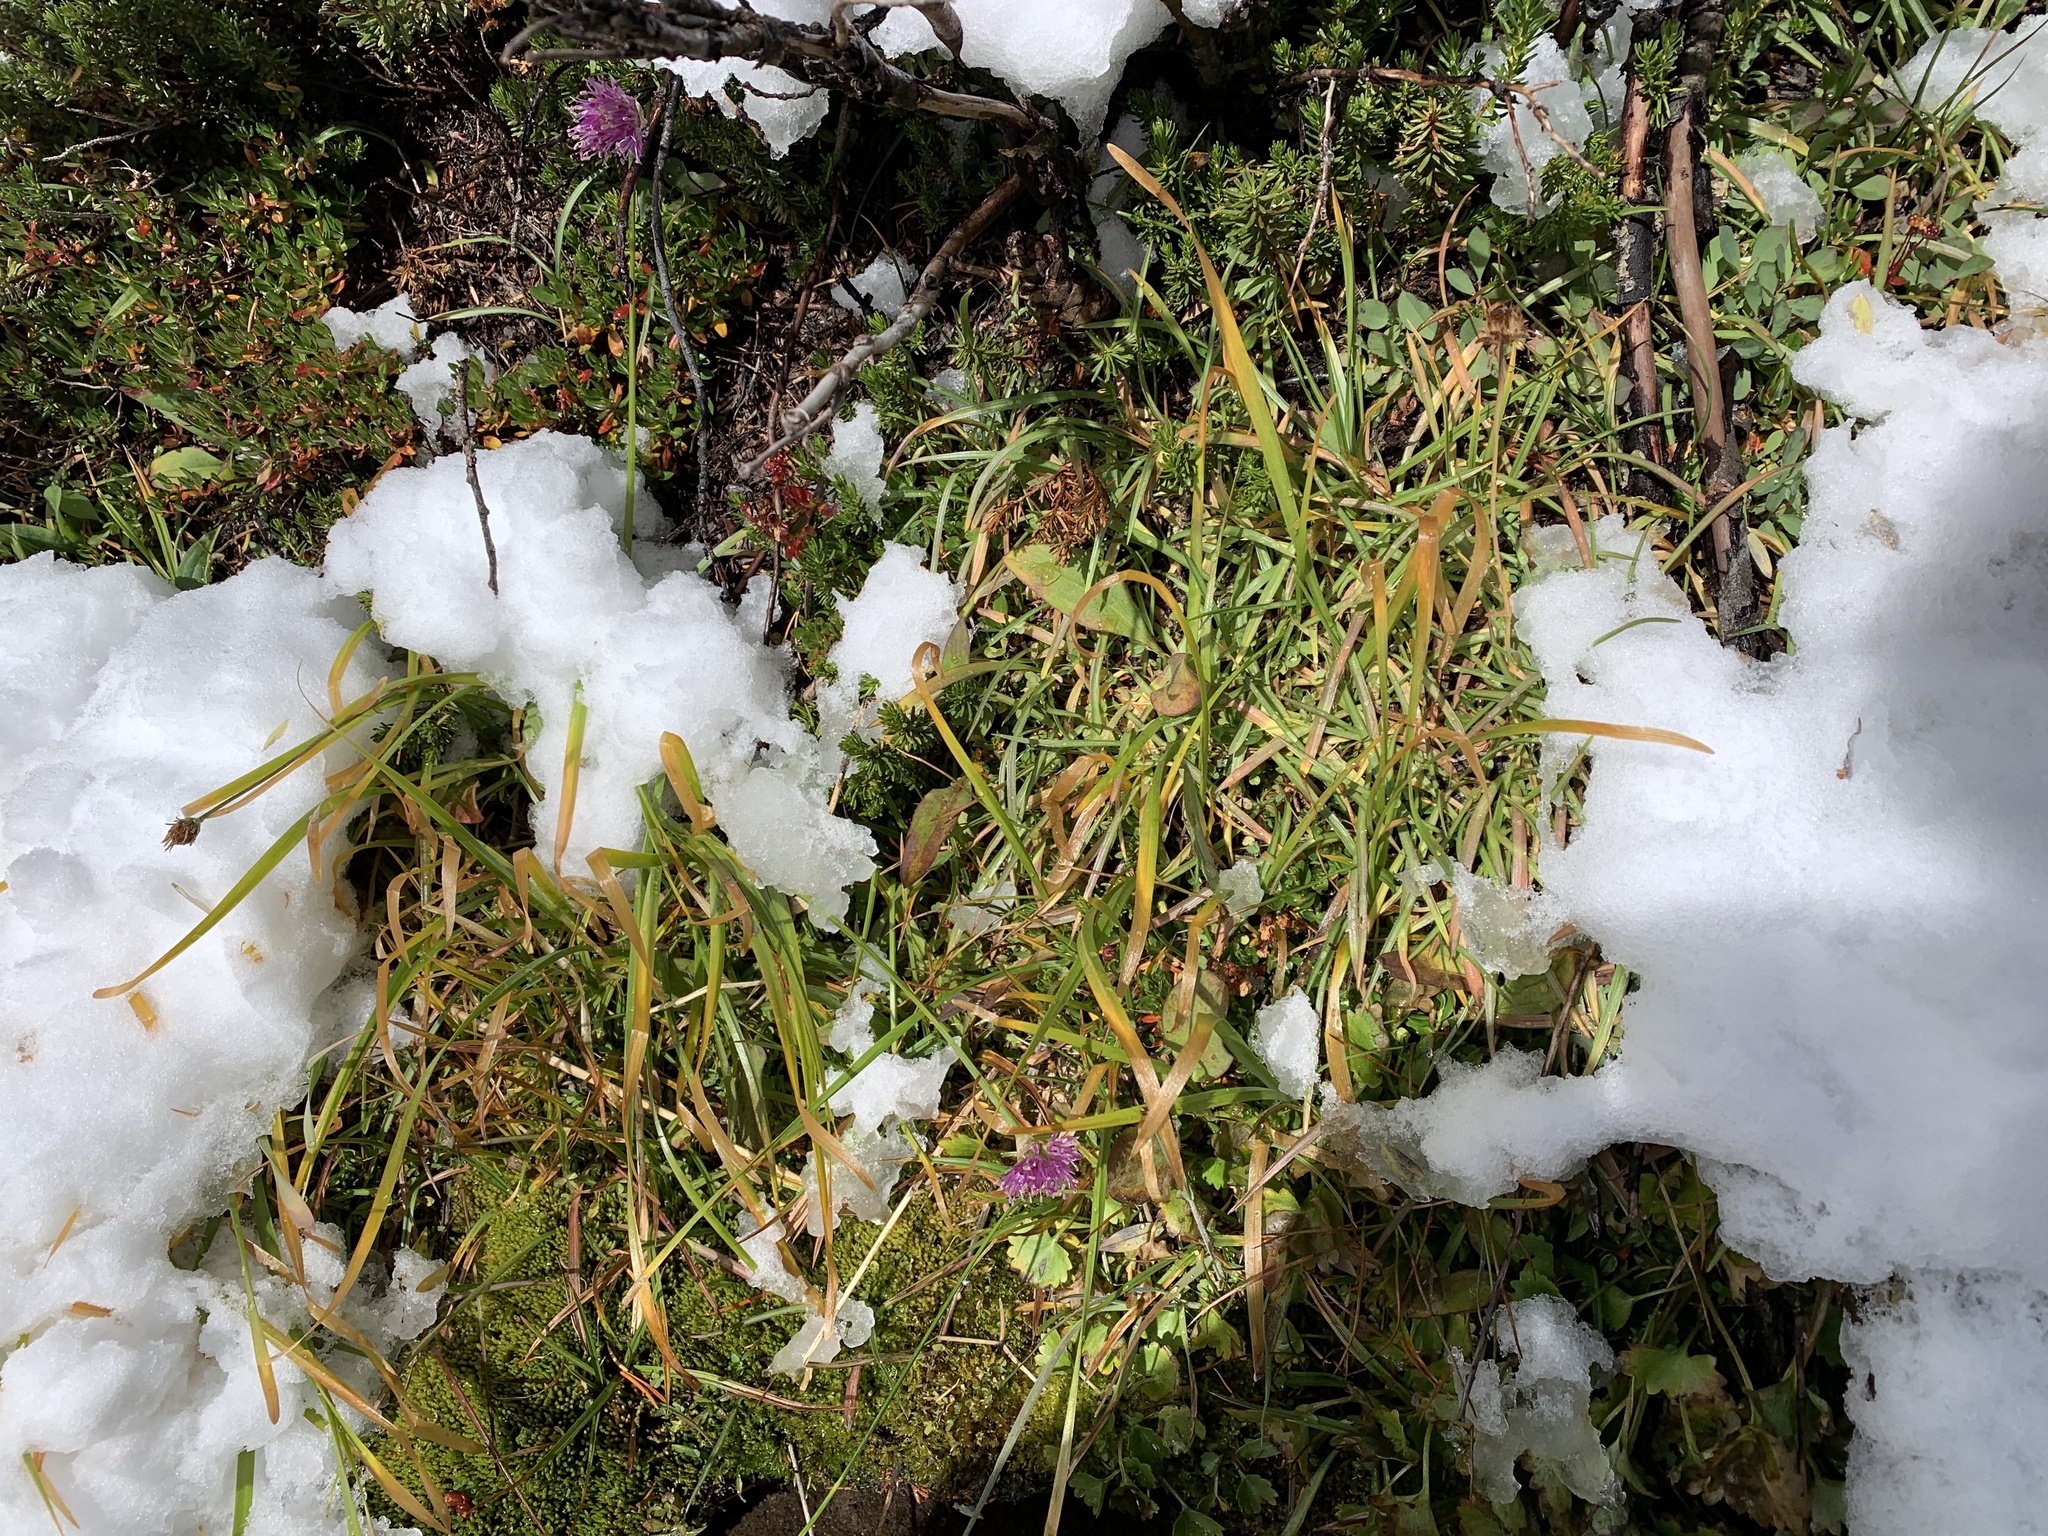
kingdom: Plantae
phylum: Tracheophyta
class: Liliopsida
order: Asparagales
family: Amaryllidaceae
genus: Allium
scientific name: Allium validum
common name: Pacific mountain onion
